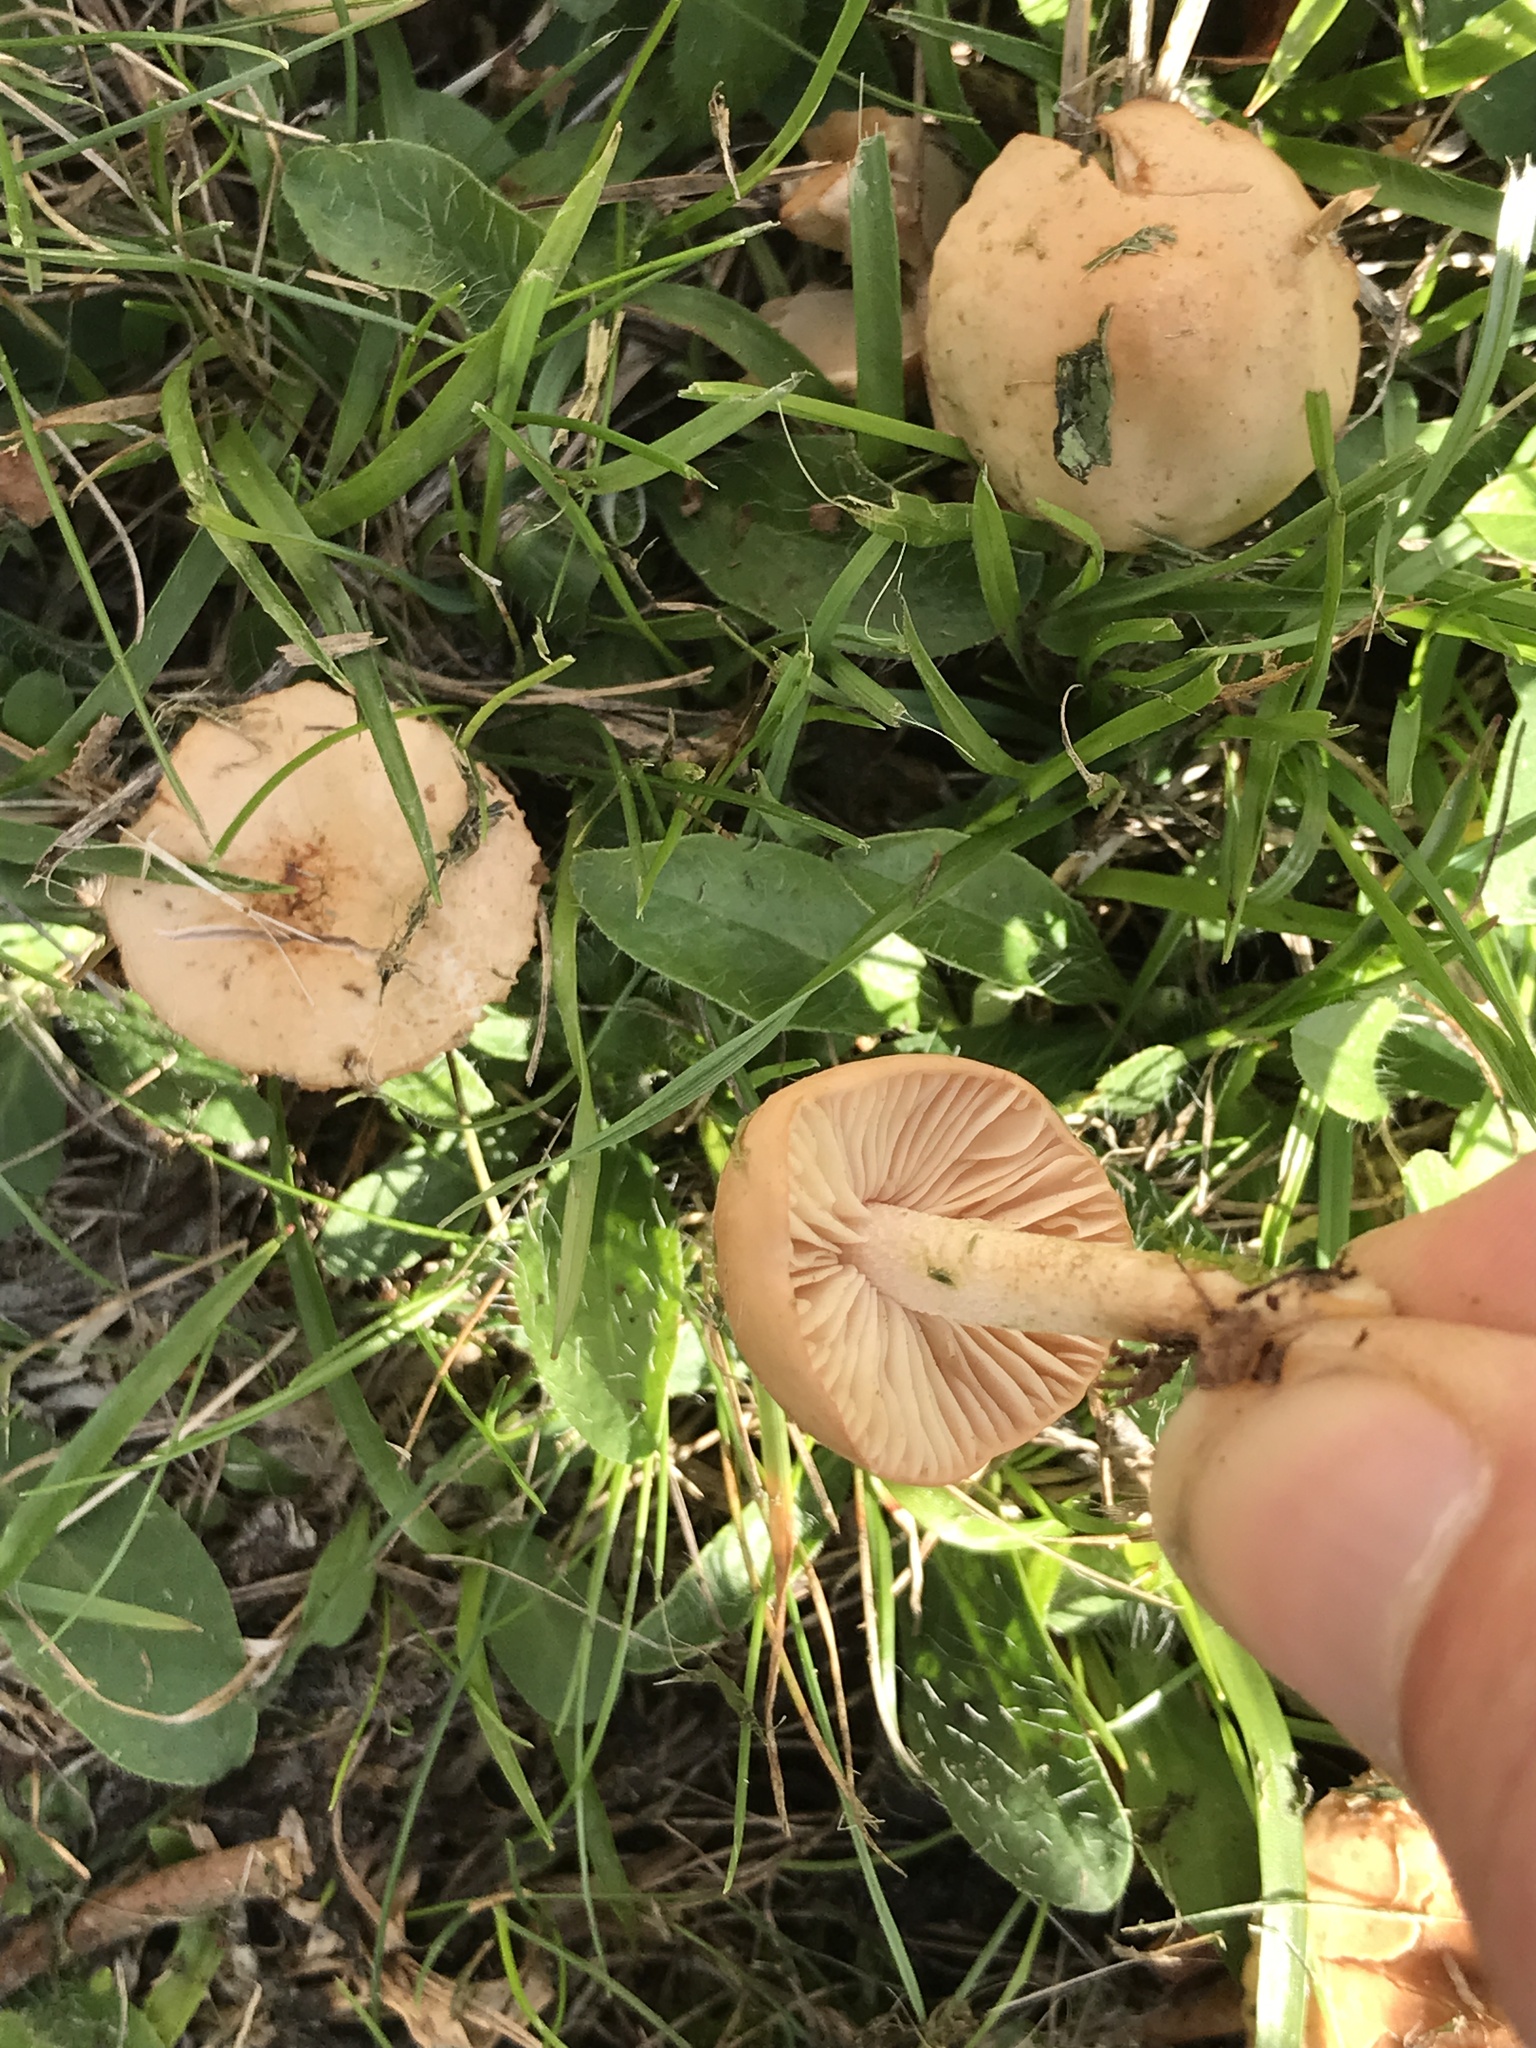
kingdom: Fungi
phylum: Basidiomycota
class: Agaricomycetes
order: Agaricales
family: Marasmiaceae
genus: Marasmius
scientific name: Marasmius oreades
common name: Fairy ring champignon
